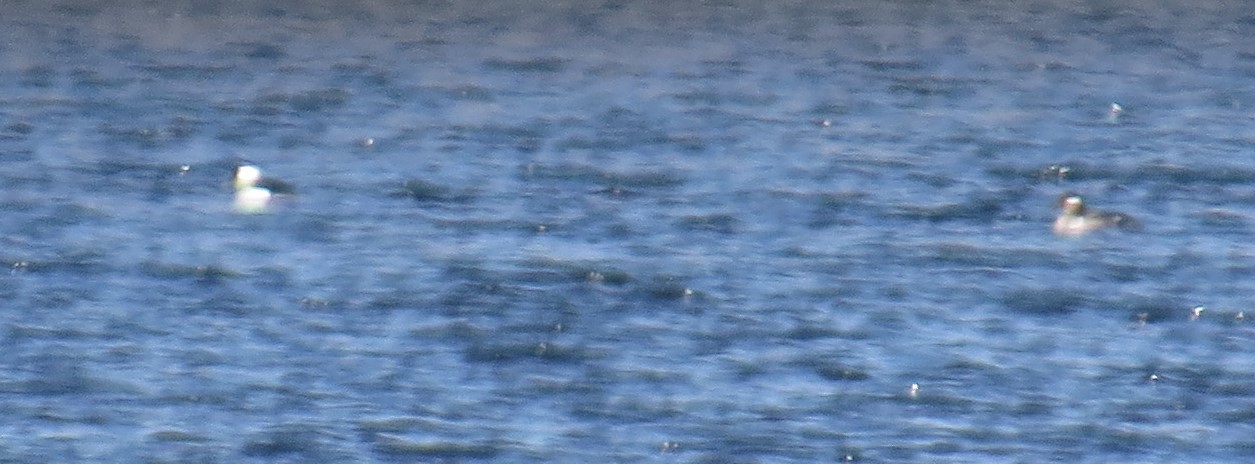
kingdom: Animalia
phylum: Chordata
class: Aves
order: Anseriformes
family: Anatidae
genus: Bucephala
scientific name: Bucephala albeola
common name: Bufflehead
